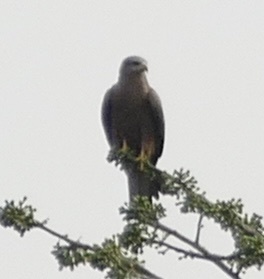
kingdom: Animalia
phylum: Chordata
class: Aves
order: Accipitriformes
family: Accipitridae
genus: Milvus
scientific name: Milvus migrans
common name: Black kite
